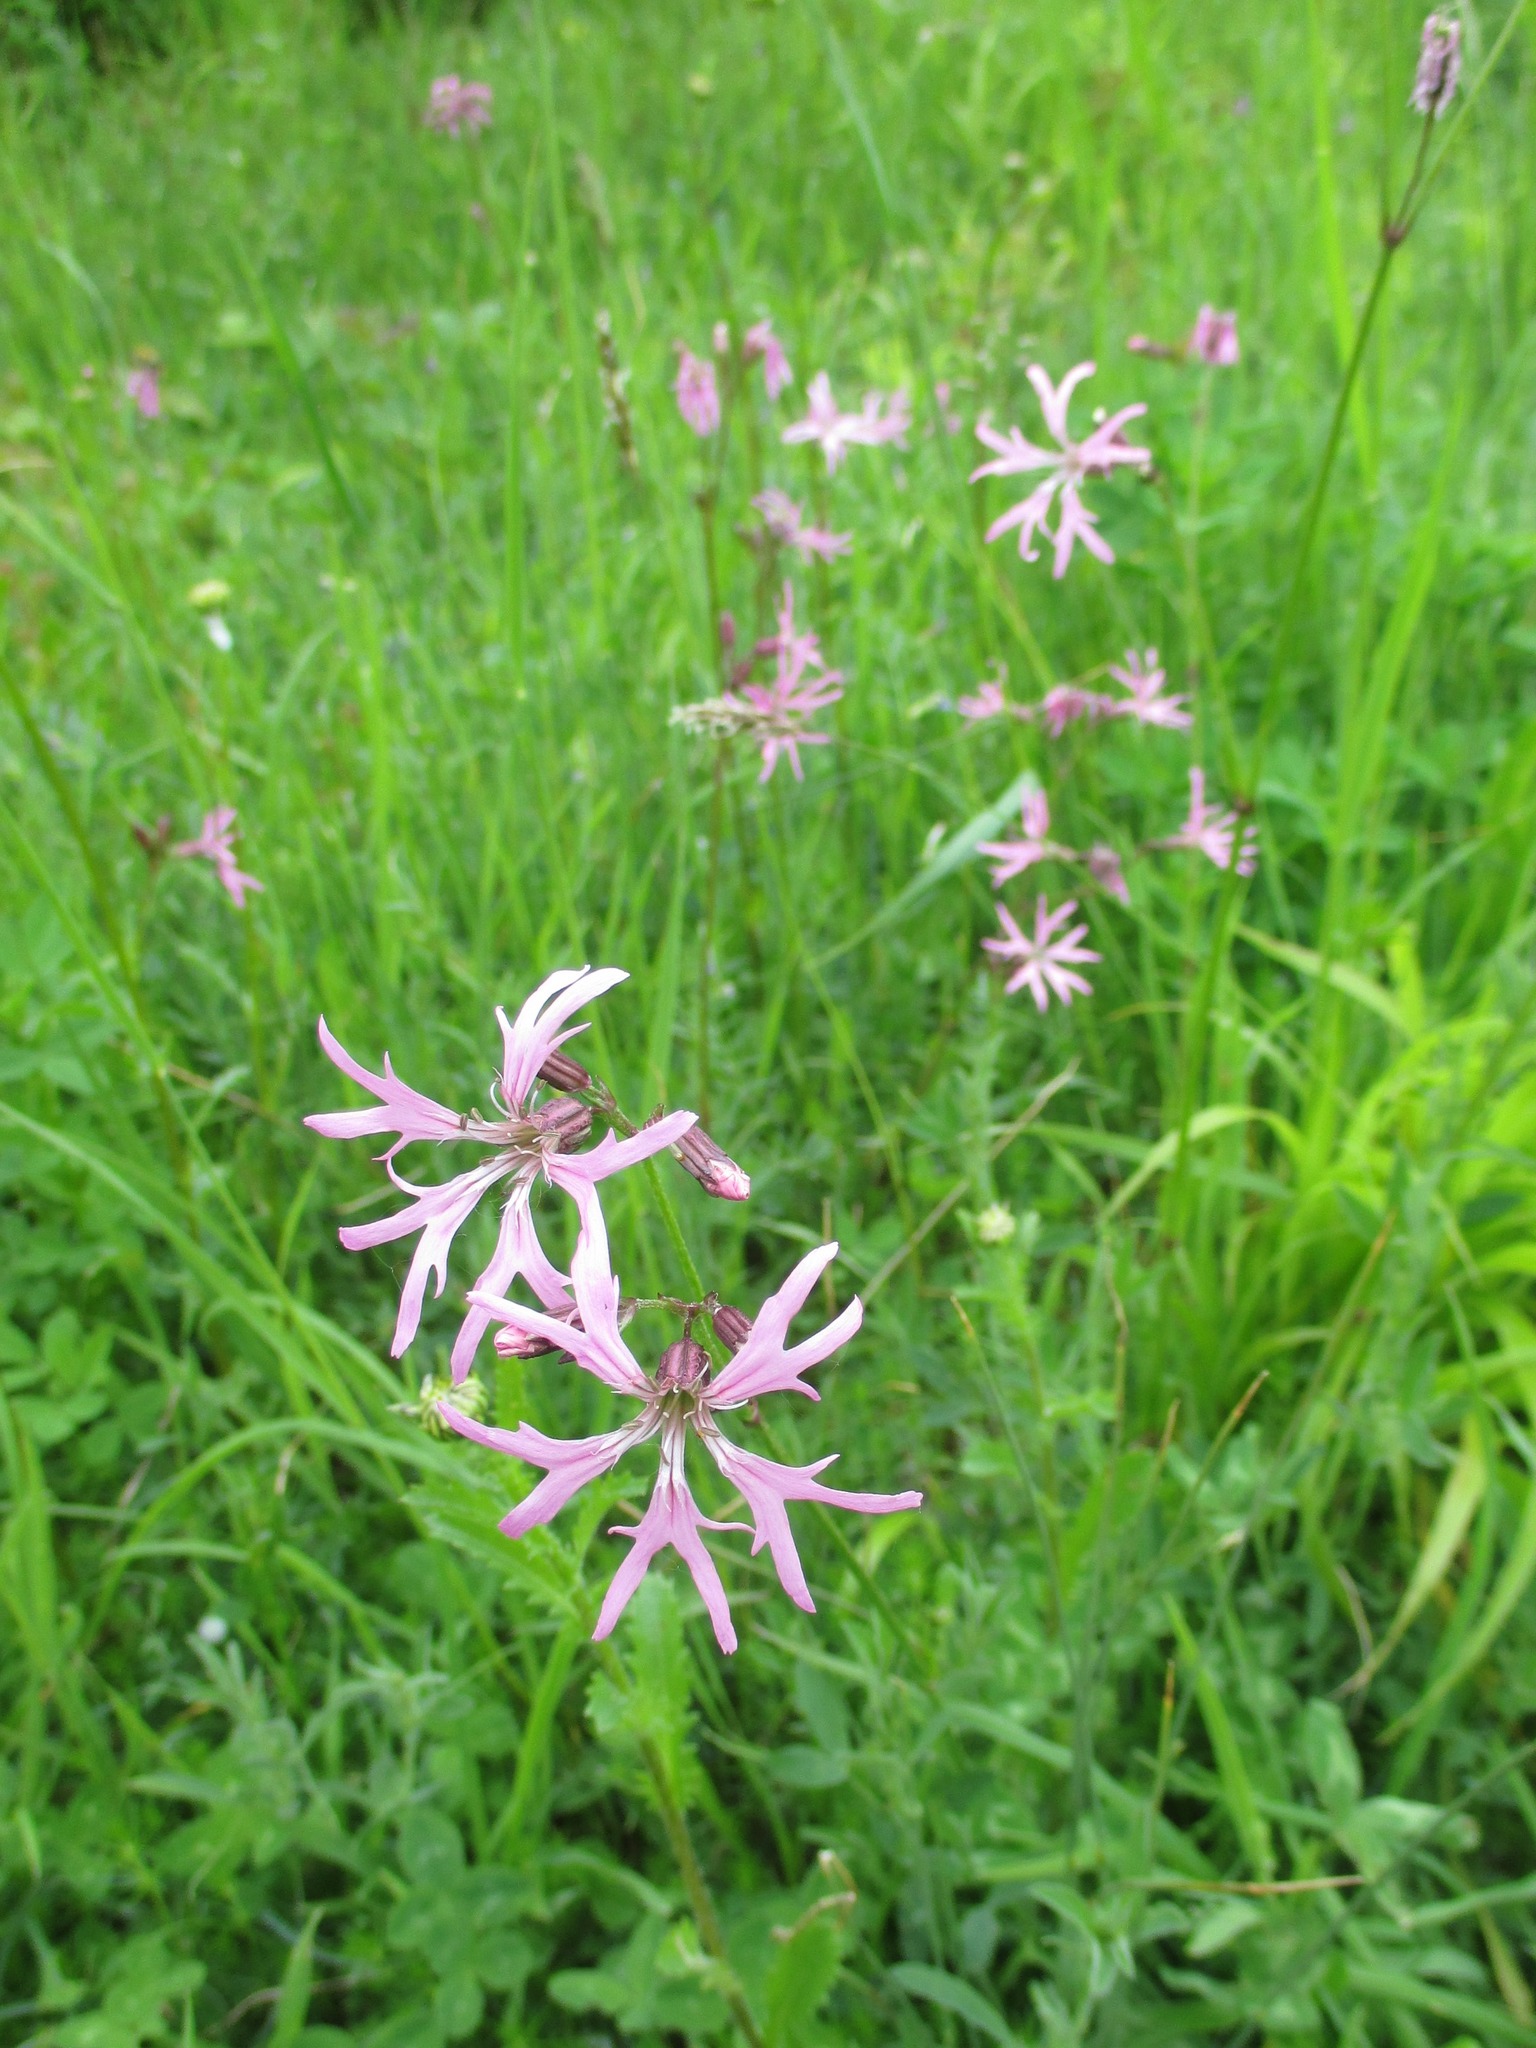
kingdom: Plantae
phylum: Tracheophyta
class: Magnoliopsida
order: Caryophyllales
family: Caryophyllaceae
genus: Silene
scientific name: Silene flos-cuculi
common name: Ragged-robin
